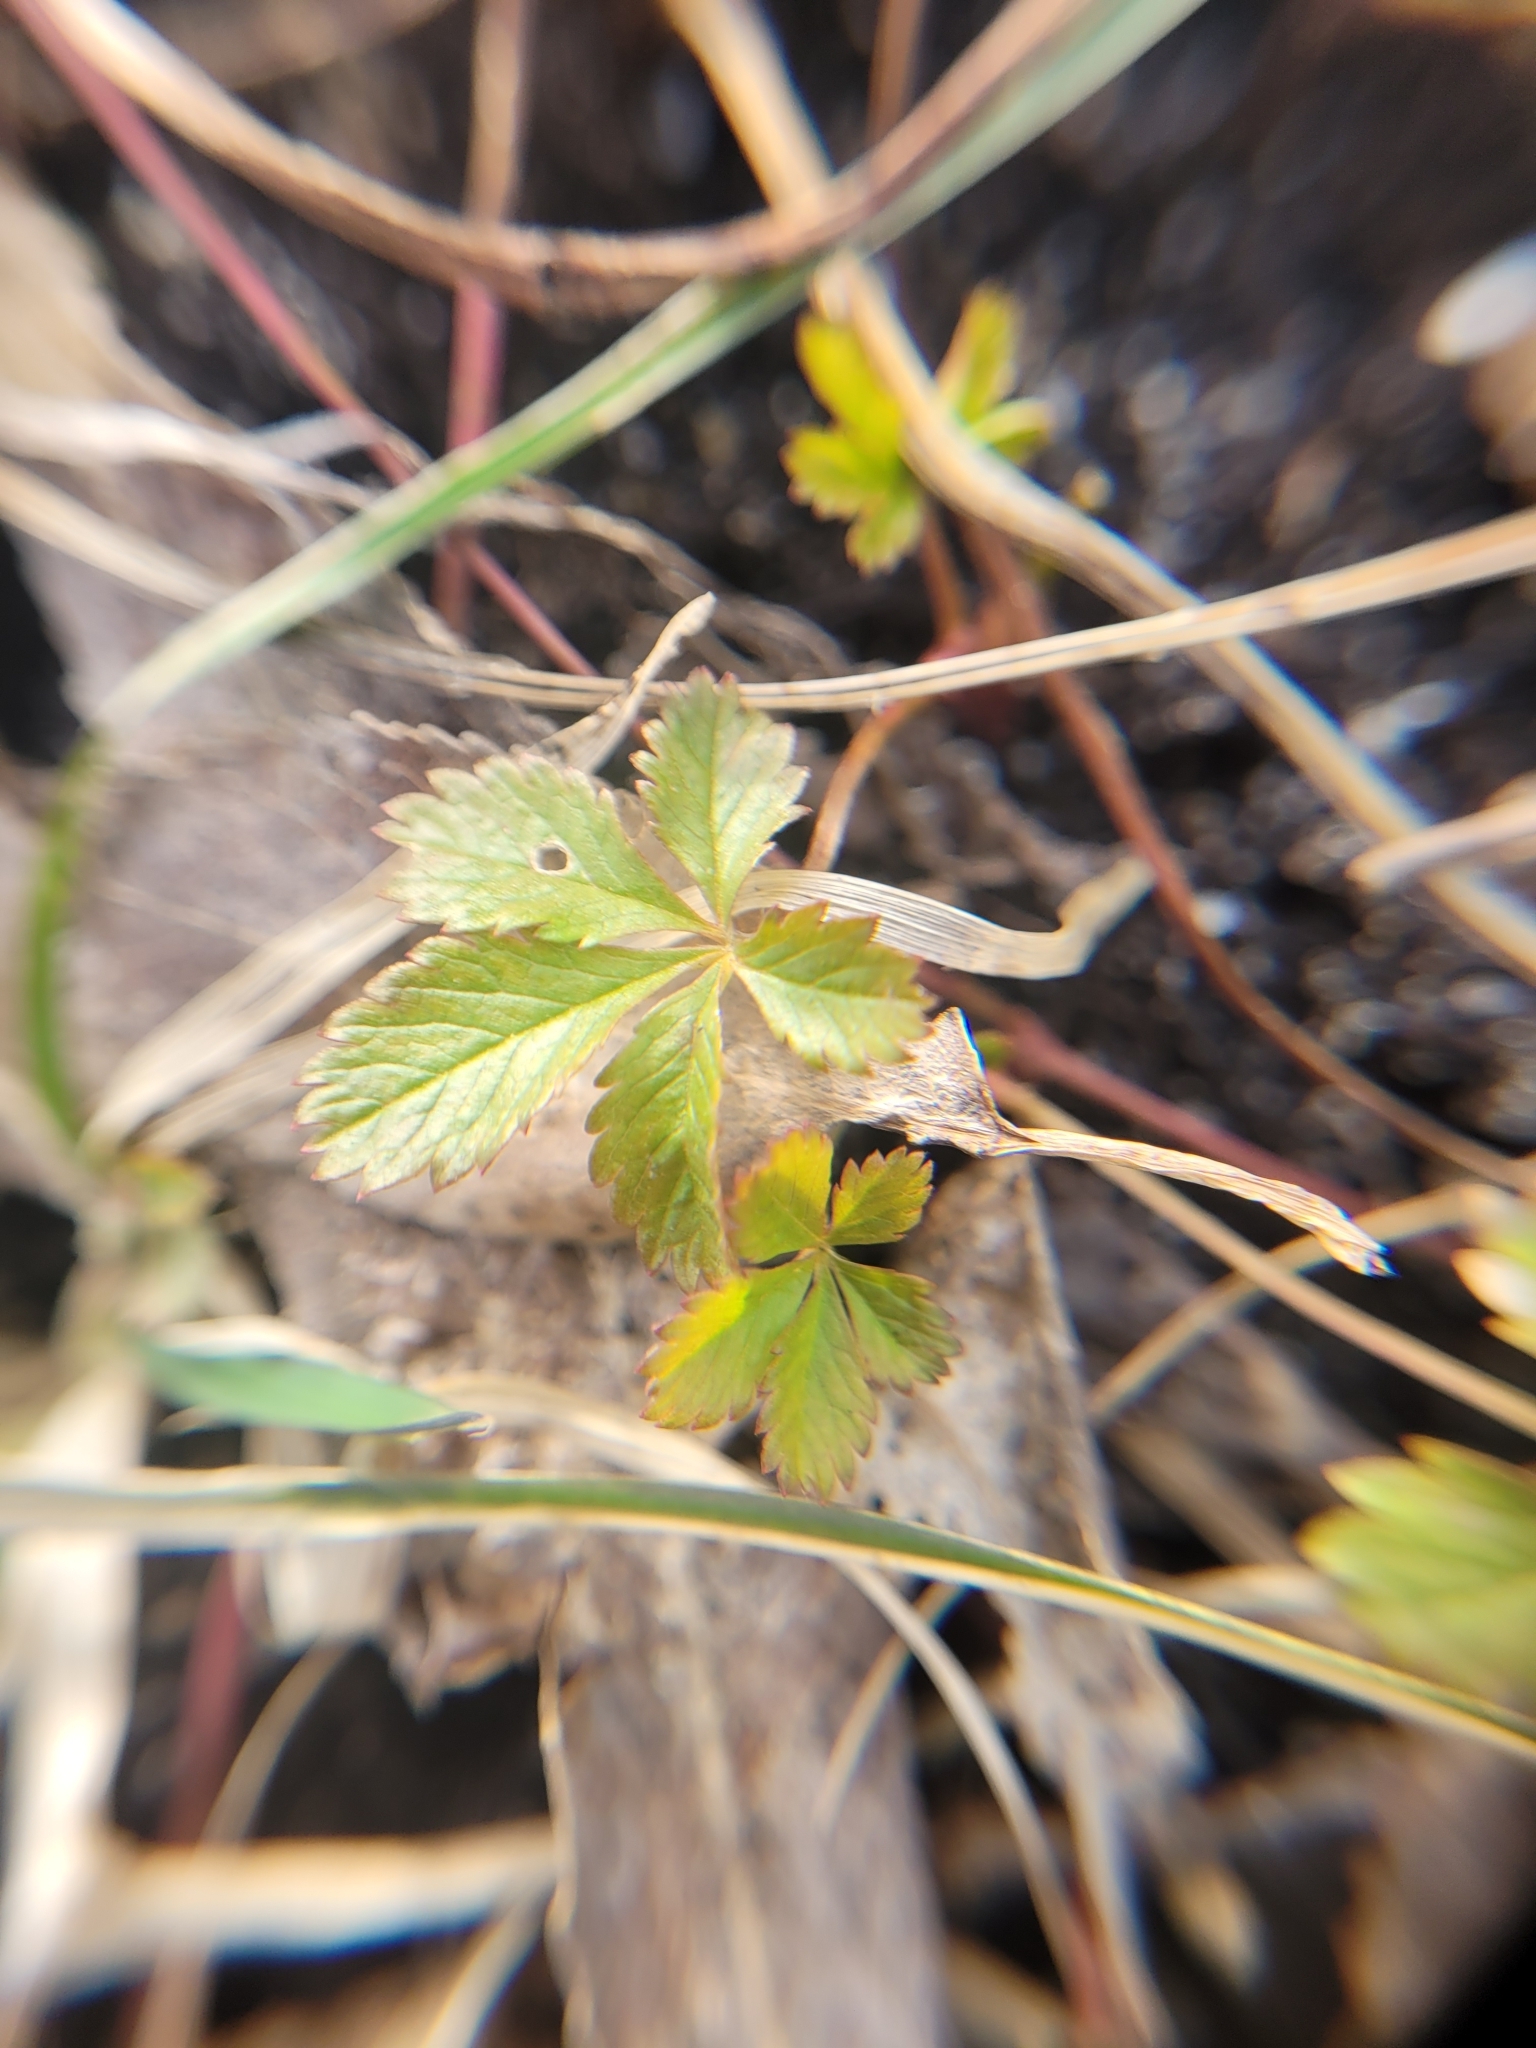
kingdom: Plantae
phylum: Tracheophyta
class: Magnoliopsida
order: Rosales
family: Rosaceae
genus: Potentilla
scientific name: Potentilla reptans
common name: Creeping cinquefoil
